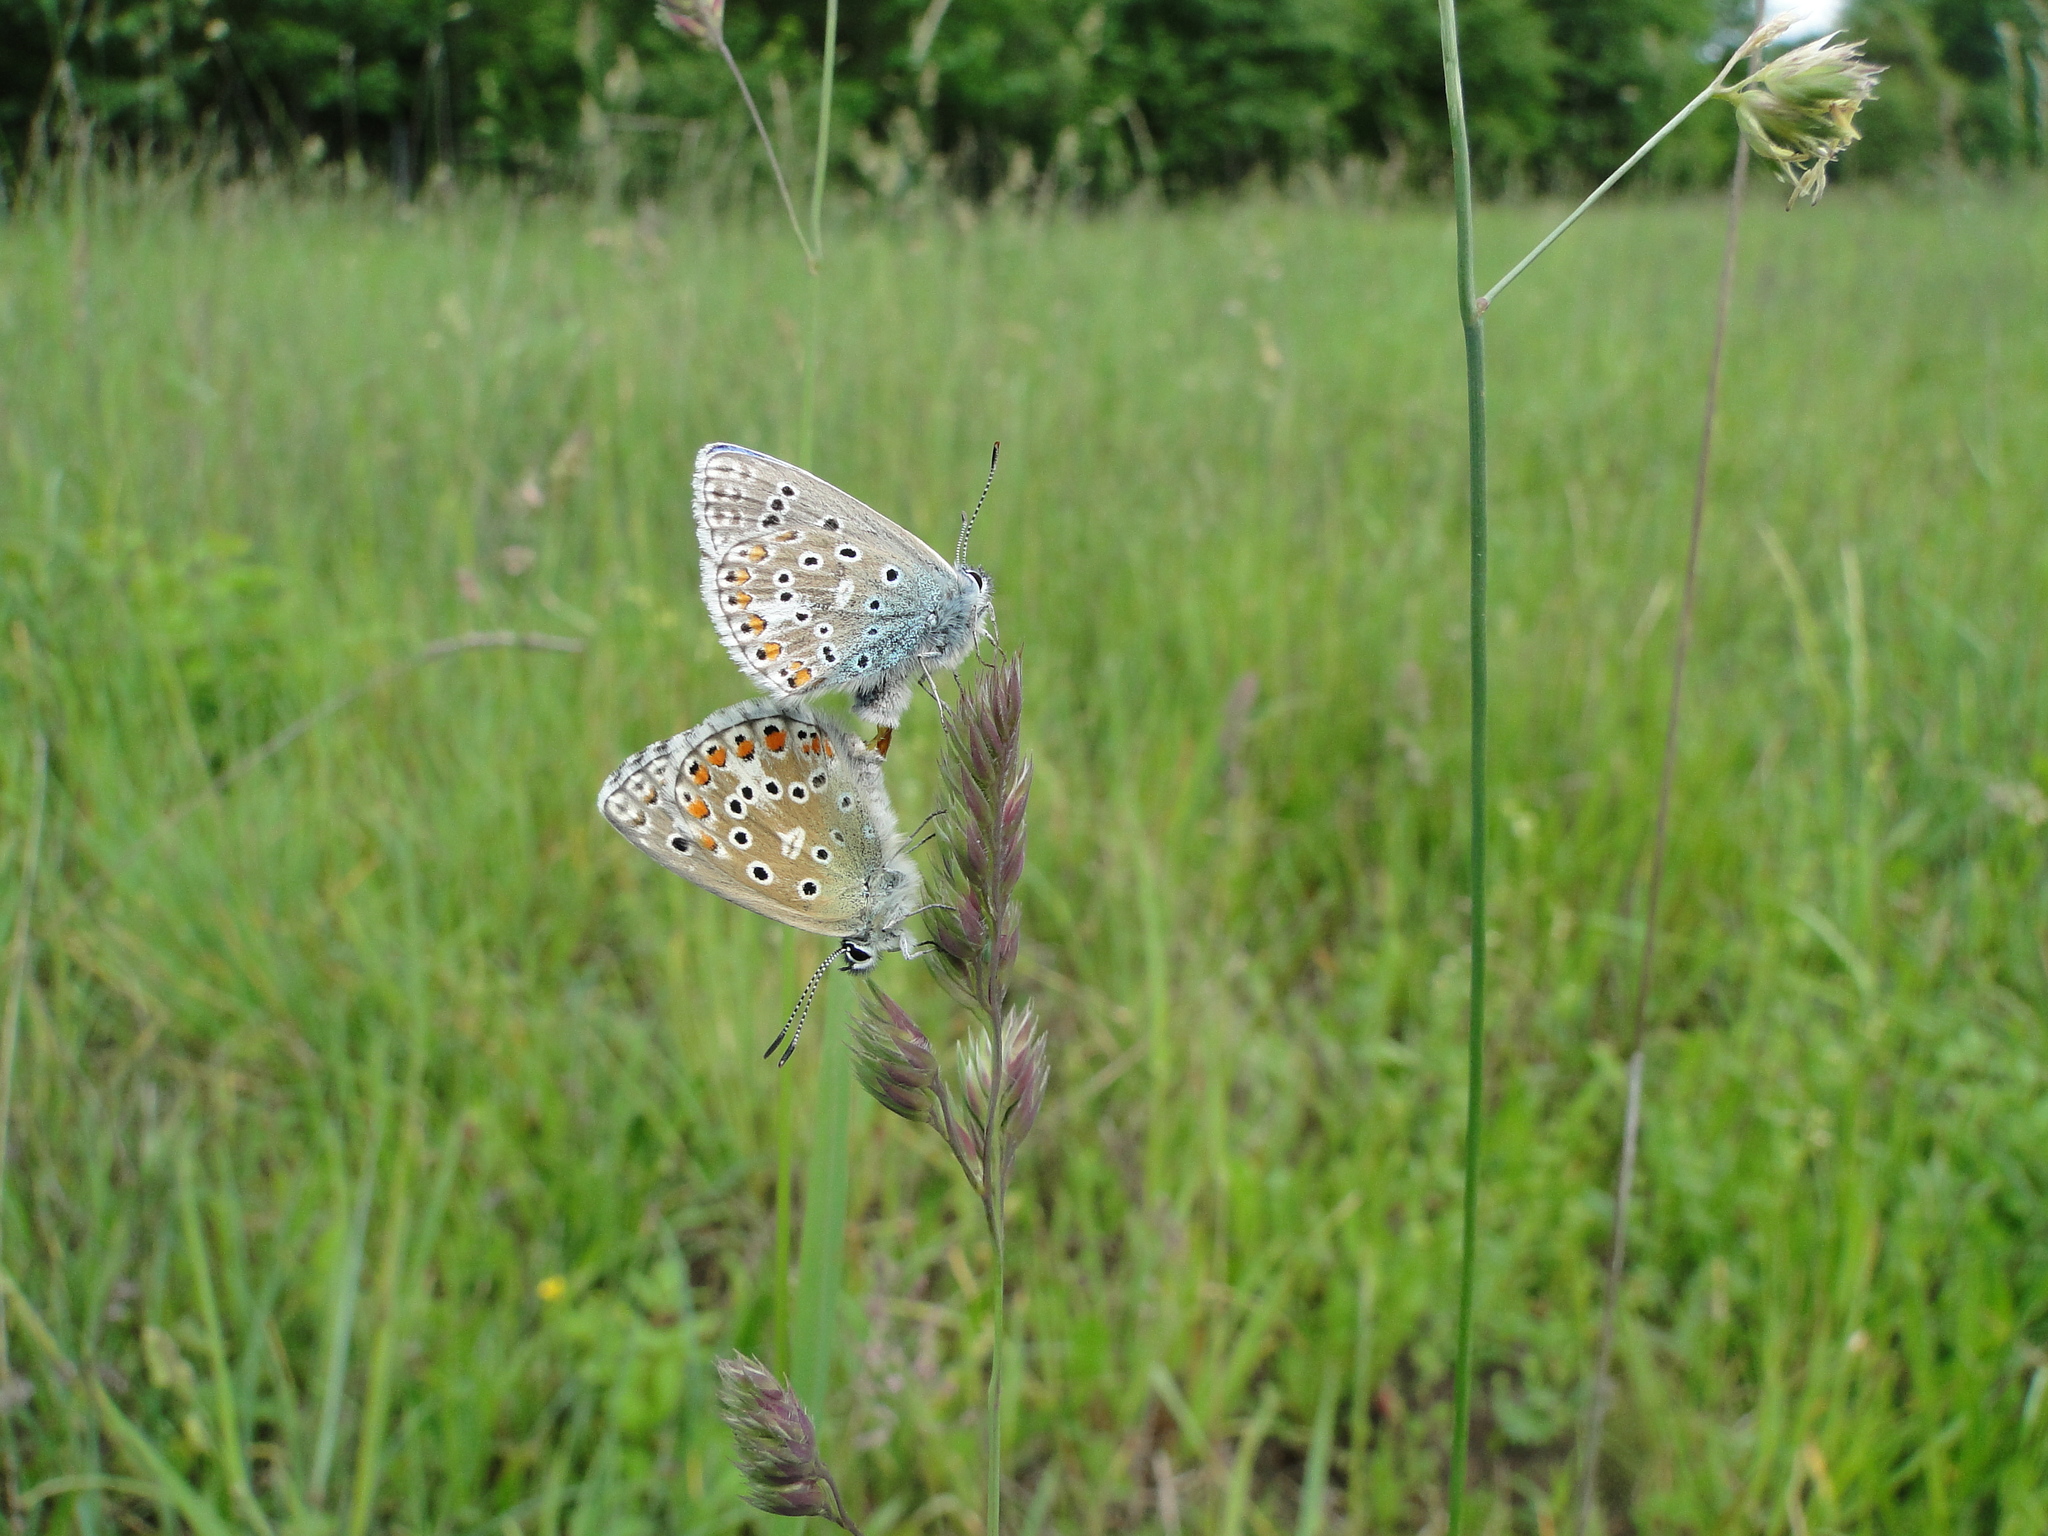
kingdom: Animalia
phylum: Arthropoda
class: Insecta
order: Lepidoptera
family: Lycaenidae
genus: Lysandra
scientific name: Lysandra bellargus
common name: Adonis blue
